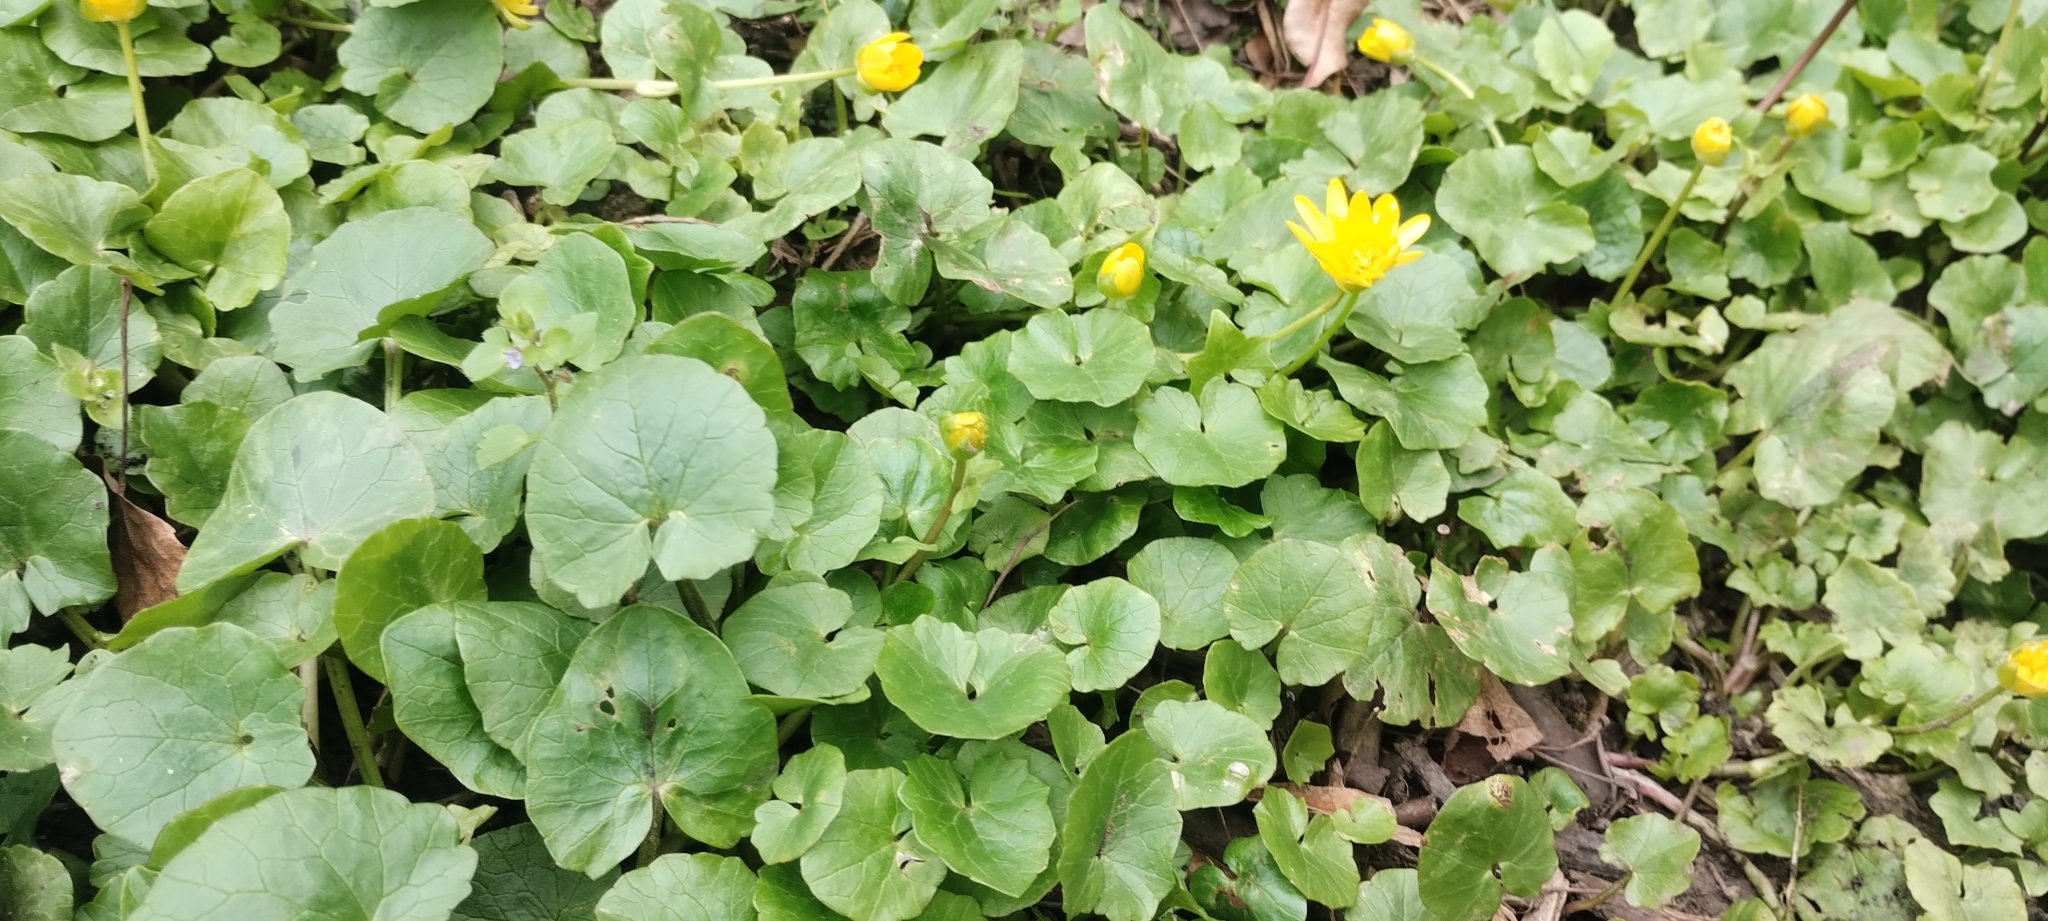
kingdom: Plantae
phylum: Tracheophyta
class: Magnoliopsida
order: Ranunculales
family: Ranunculaceae
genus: Ficaria
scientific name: Ficaria verna
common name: Lesser celandine
